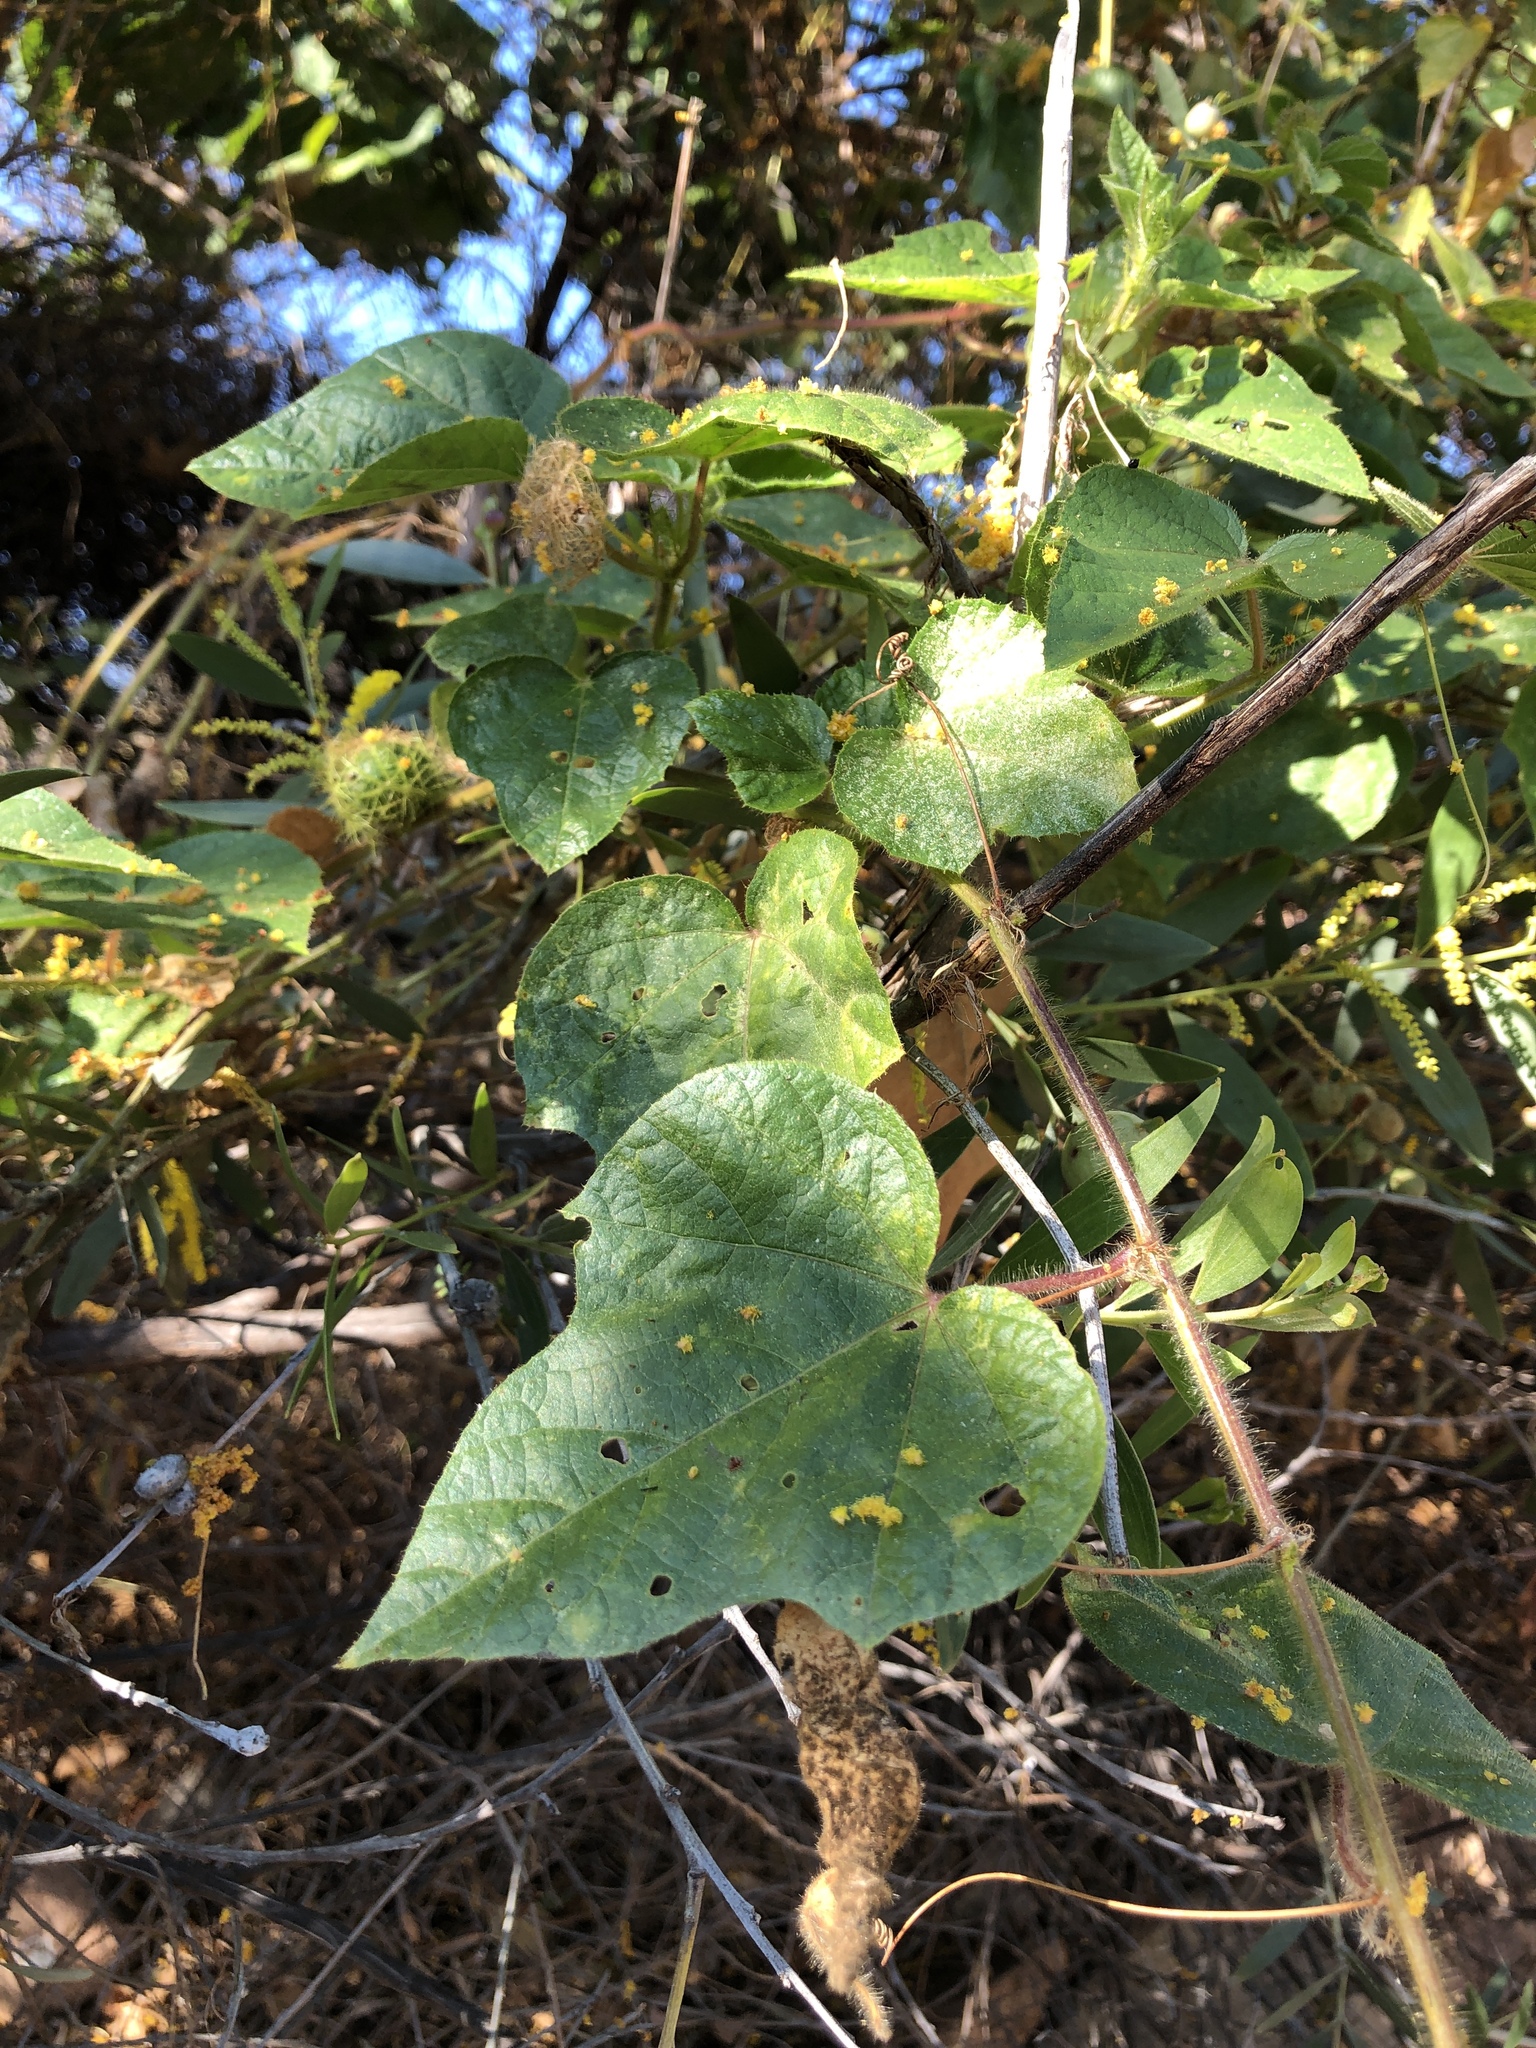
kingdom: Plantae
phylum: Tracheophyta
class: Magnoliopsida
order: Malpighiales
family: Passifloraceae
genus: Passiflora
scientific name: Passiflora foetida
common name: Fetid passionflower
